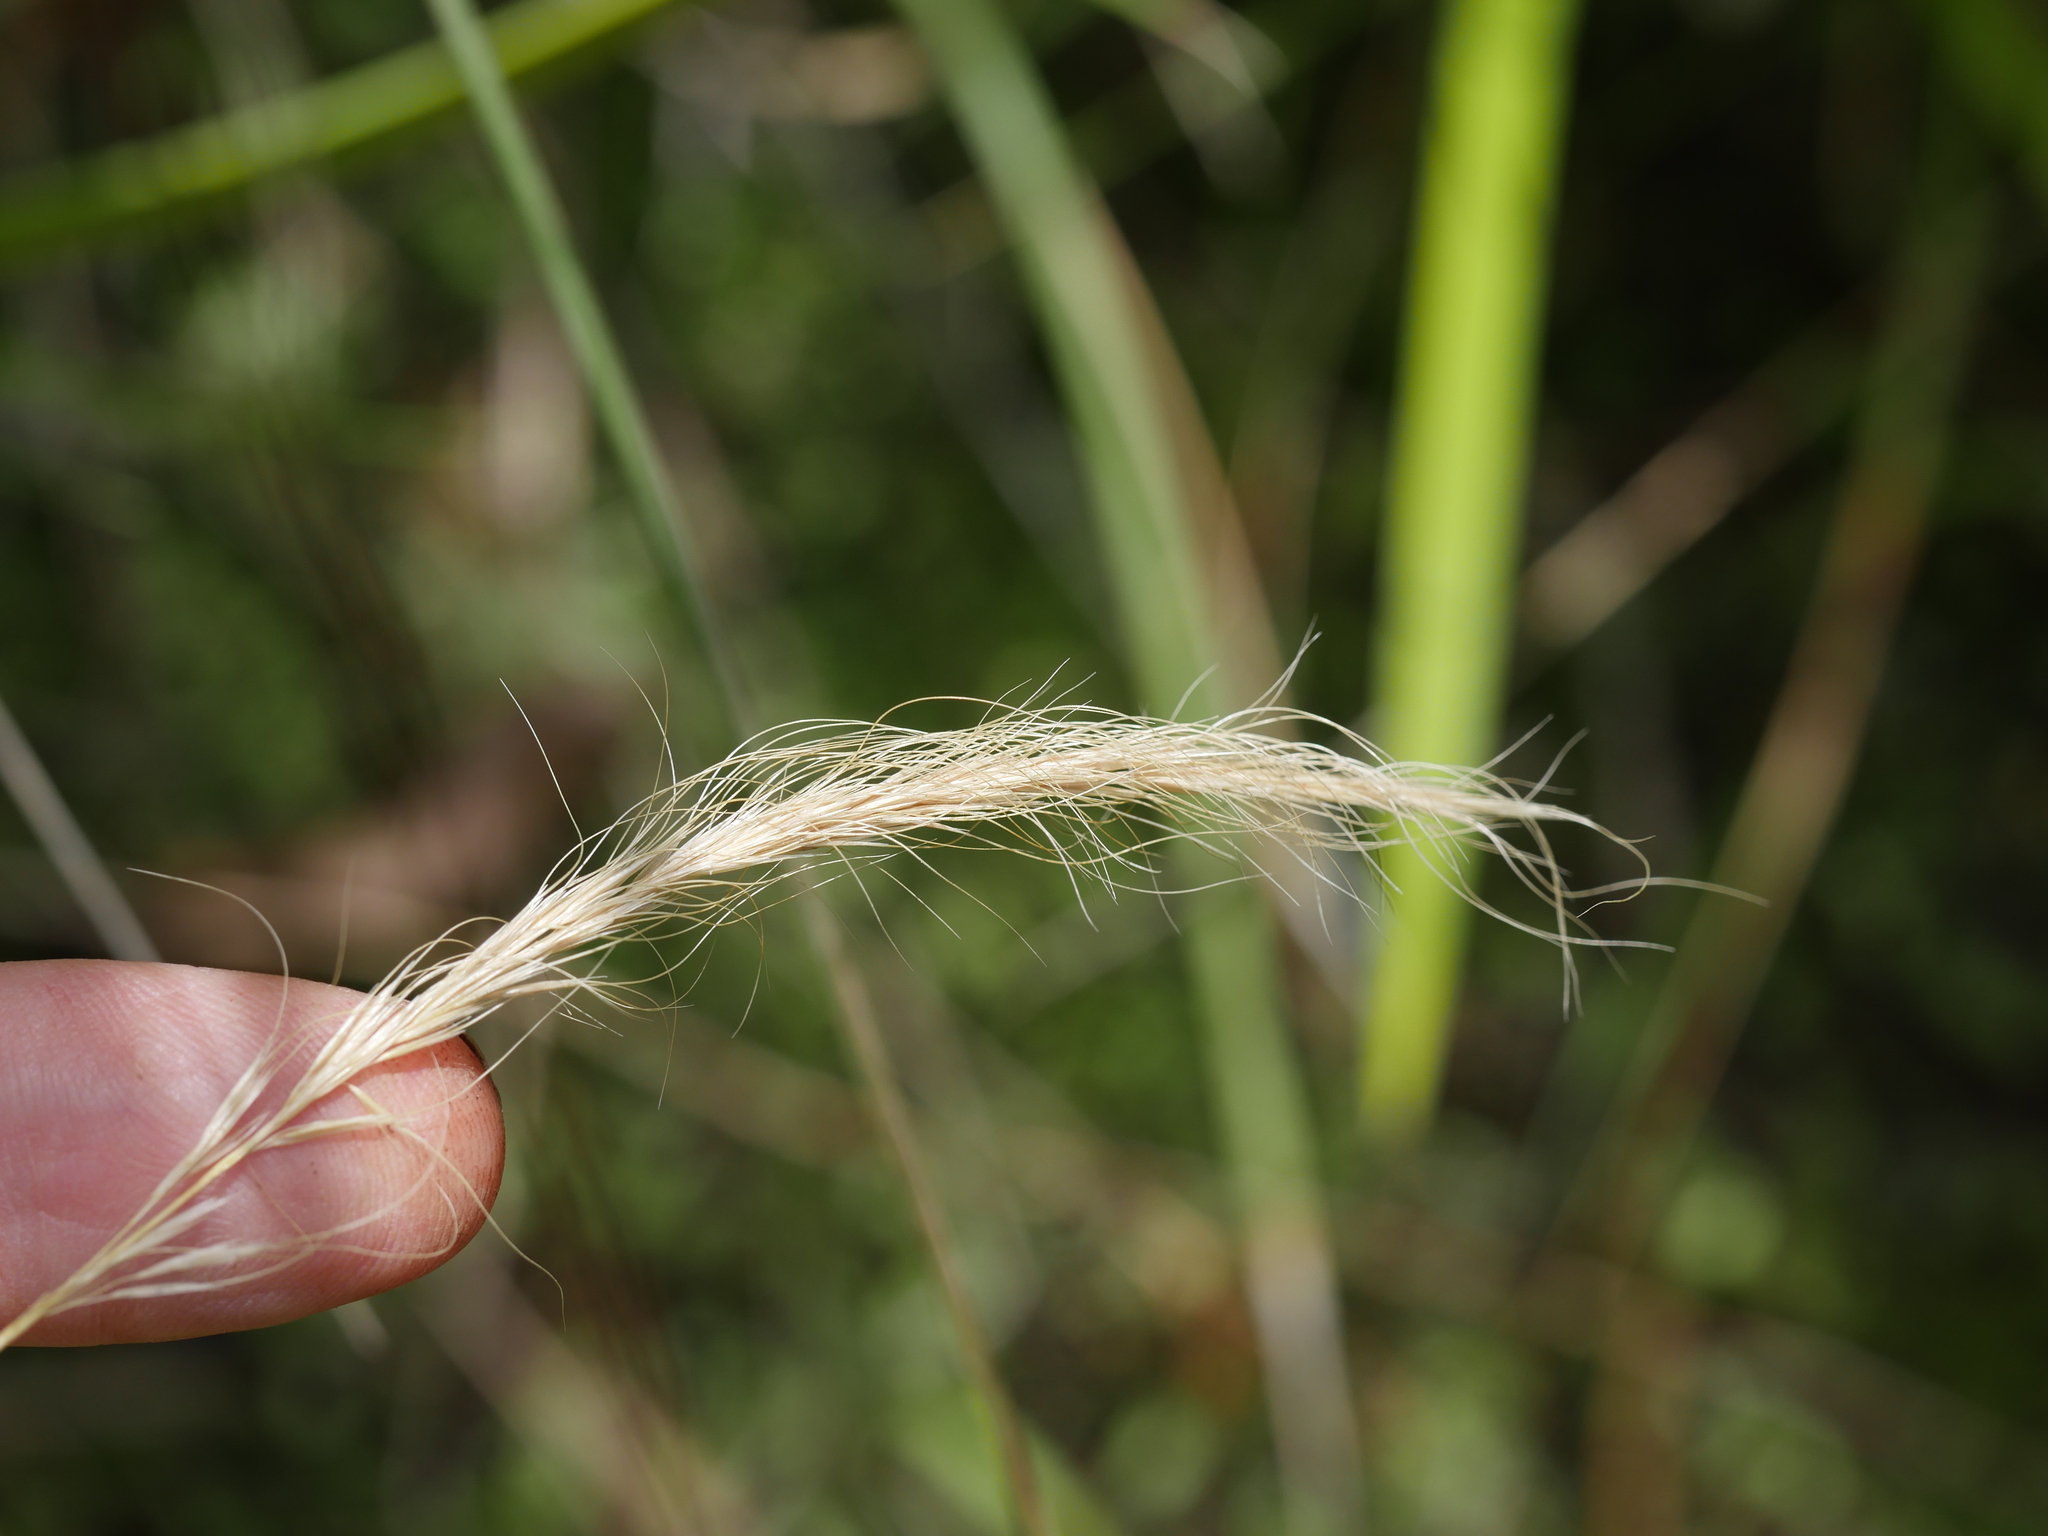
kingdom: Plantae
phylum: Tracheophyta
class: Liliopsida
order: Poales
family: Poaceae
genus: Dichelachne
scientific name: Dichelachne crinita
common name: Clovenfoot plumegrass
